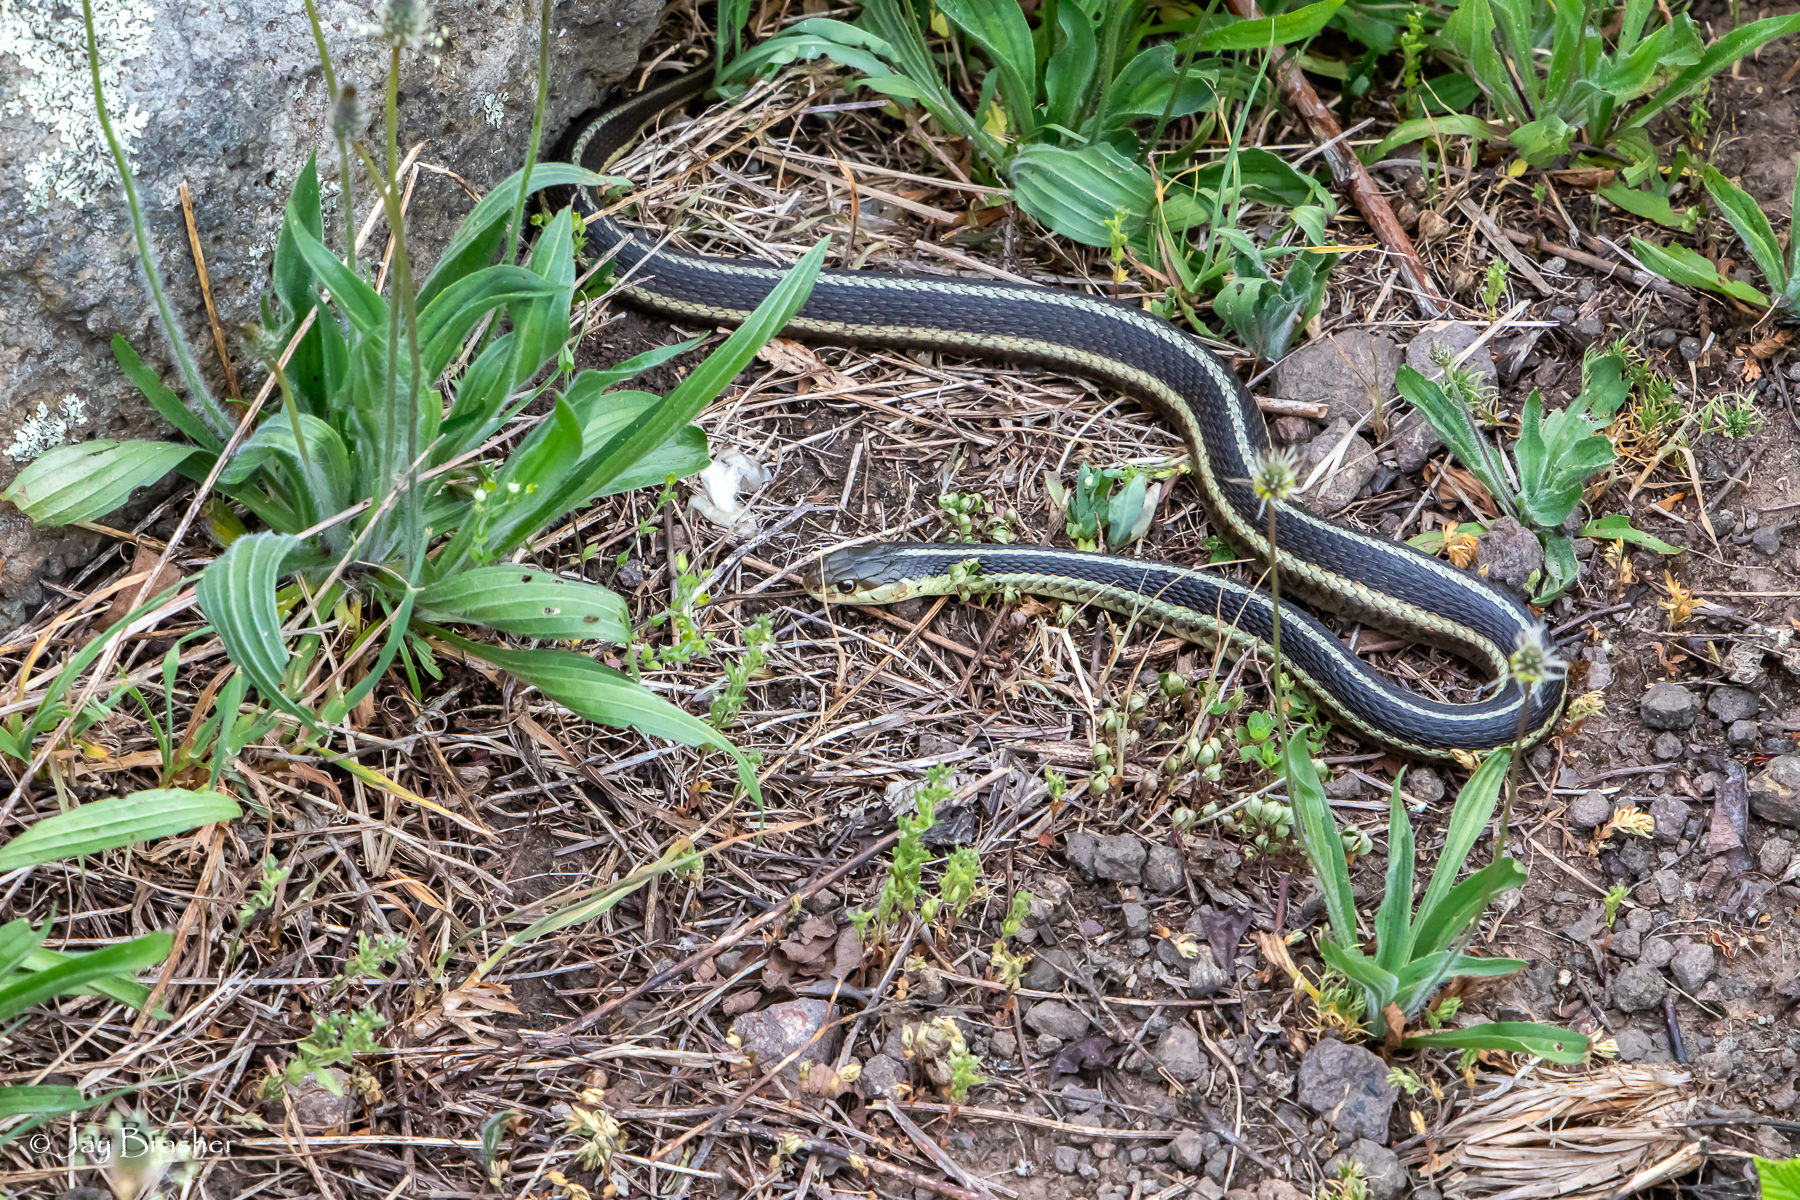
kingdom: Animalia
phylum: Chordata
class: Squamata
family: Colubridae
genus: Thamnophis
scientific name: Thamnophis sirtalis
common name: Common garter snake
